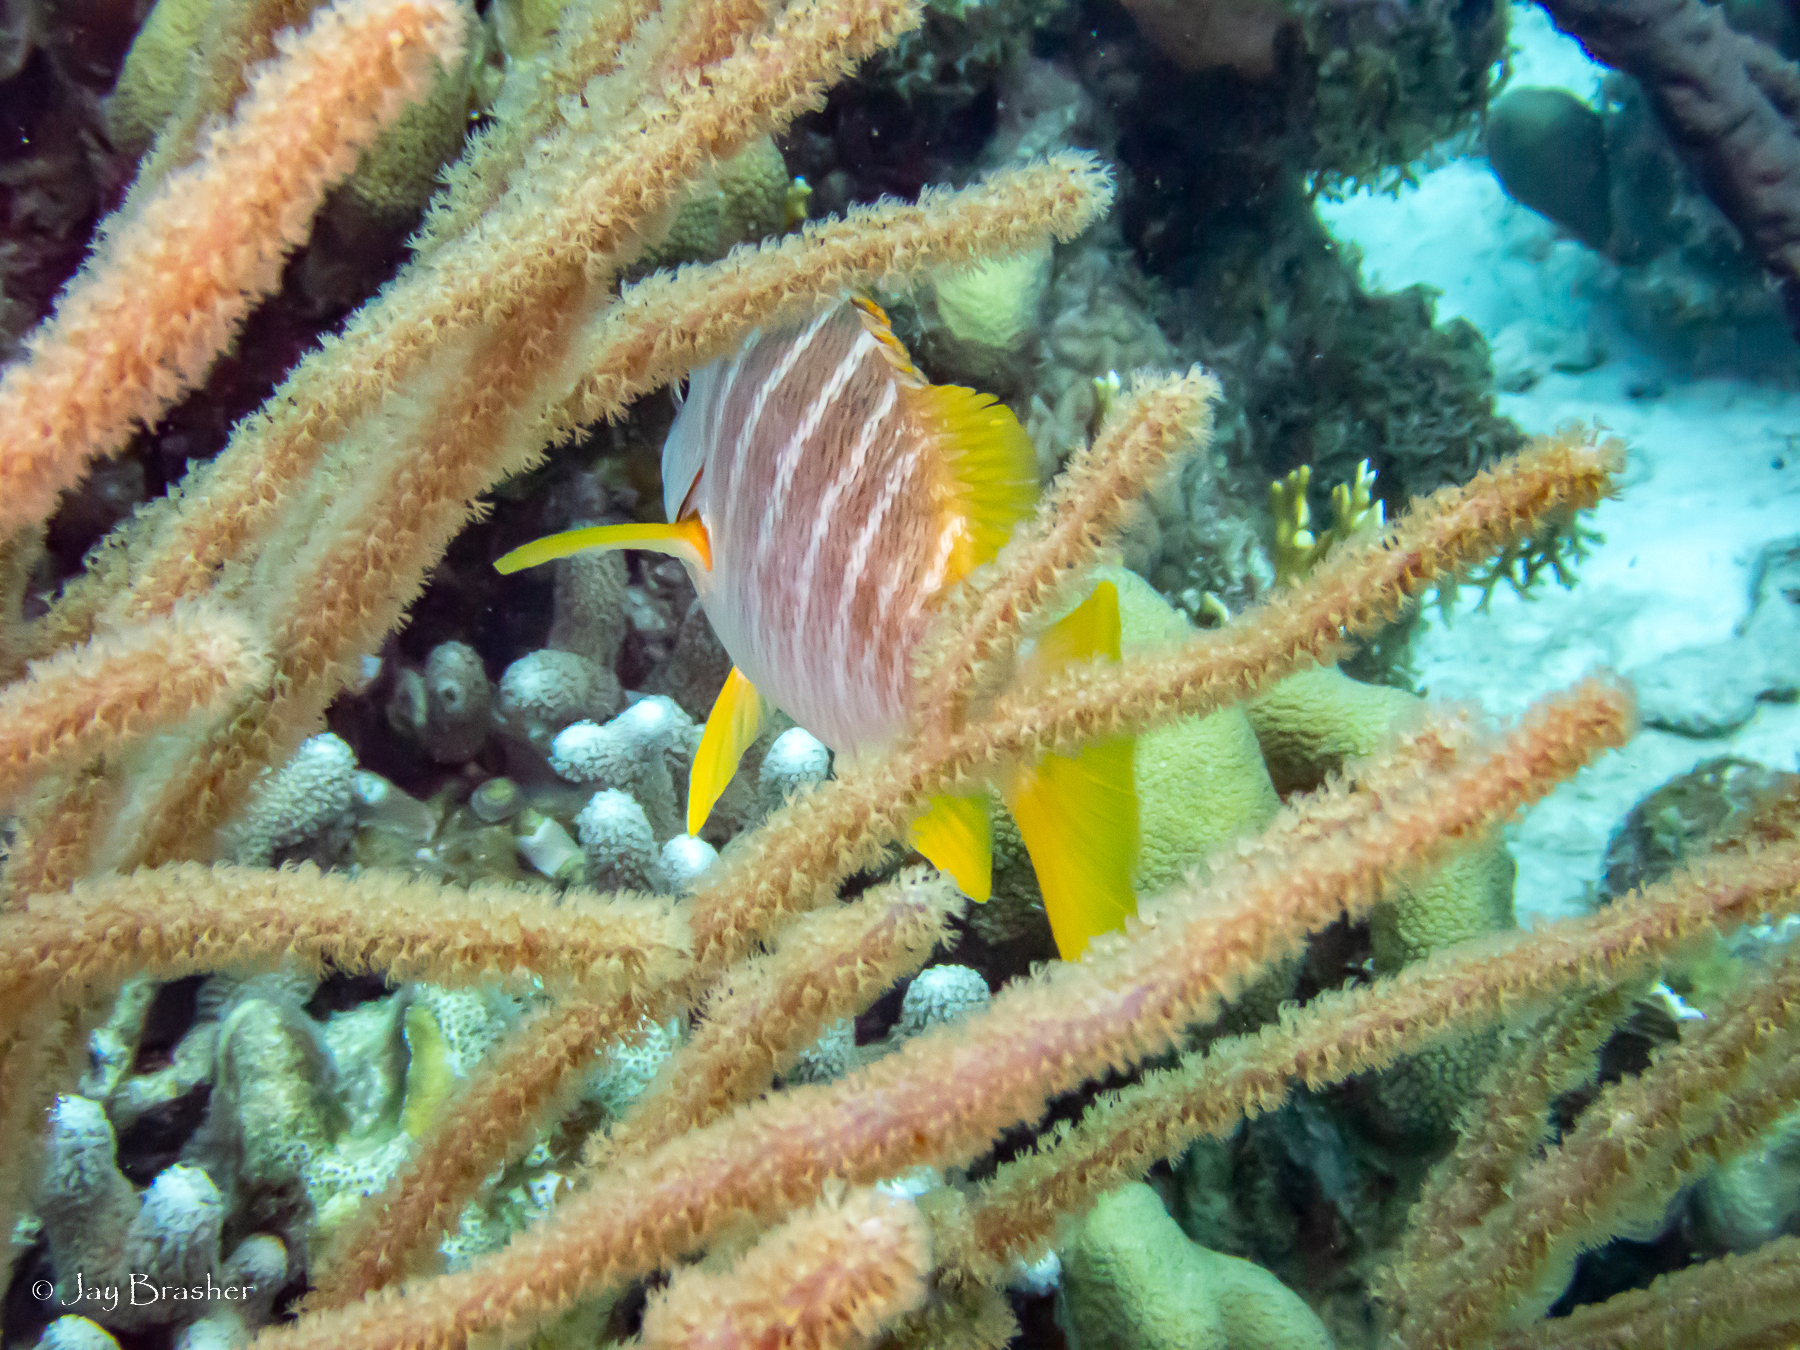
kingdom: Animalia
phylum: Chordata
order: Perciformes
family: Lutjanidae
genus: Lutjanus
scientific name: Lutjanus apodus
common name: Schoolmaster
